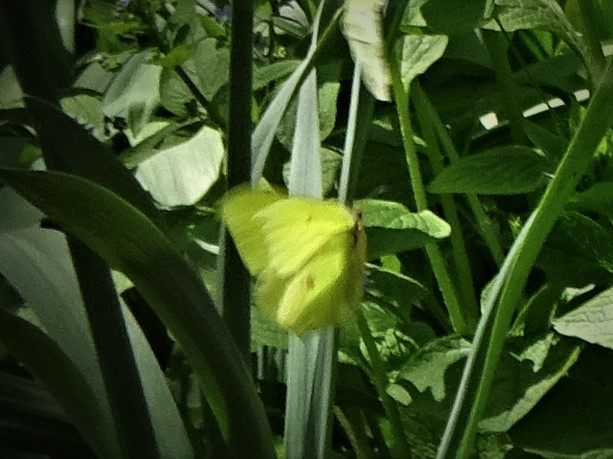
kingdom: Animalia
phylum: Arthropoda
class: Insecta
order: Lepidoptera
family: Pieridae
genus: Gonepteryx
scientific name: Gonepteryx rhamni
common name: Brimstone
